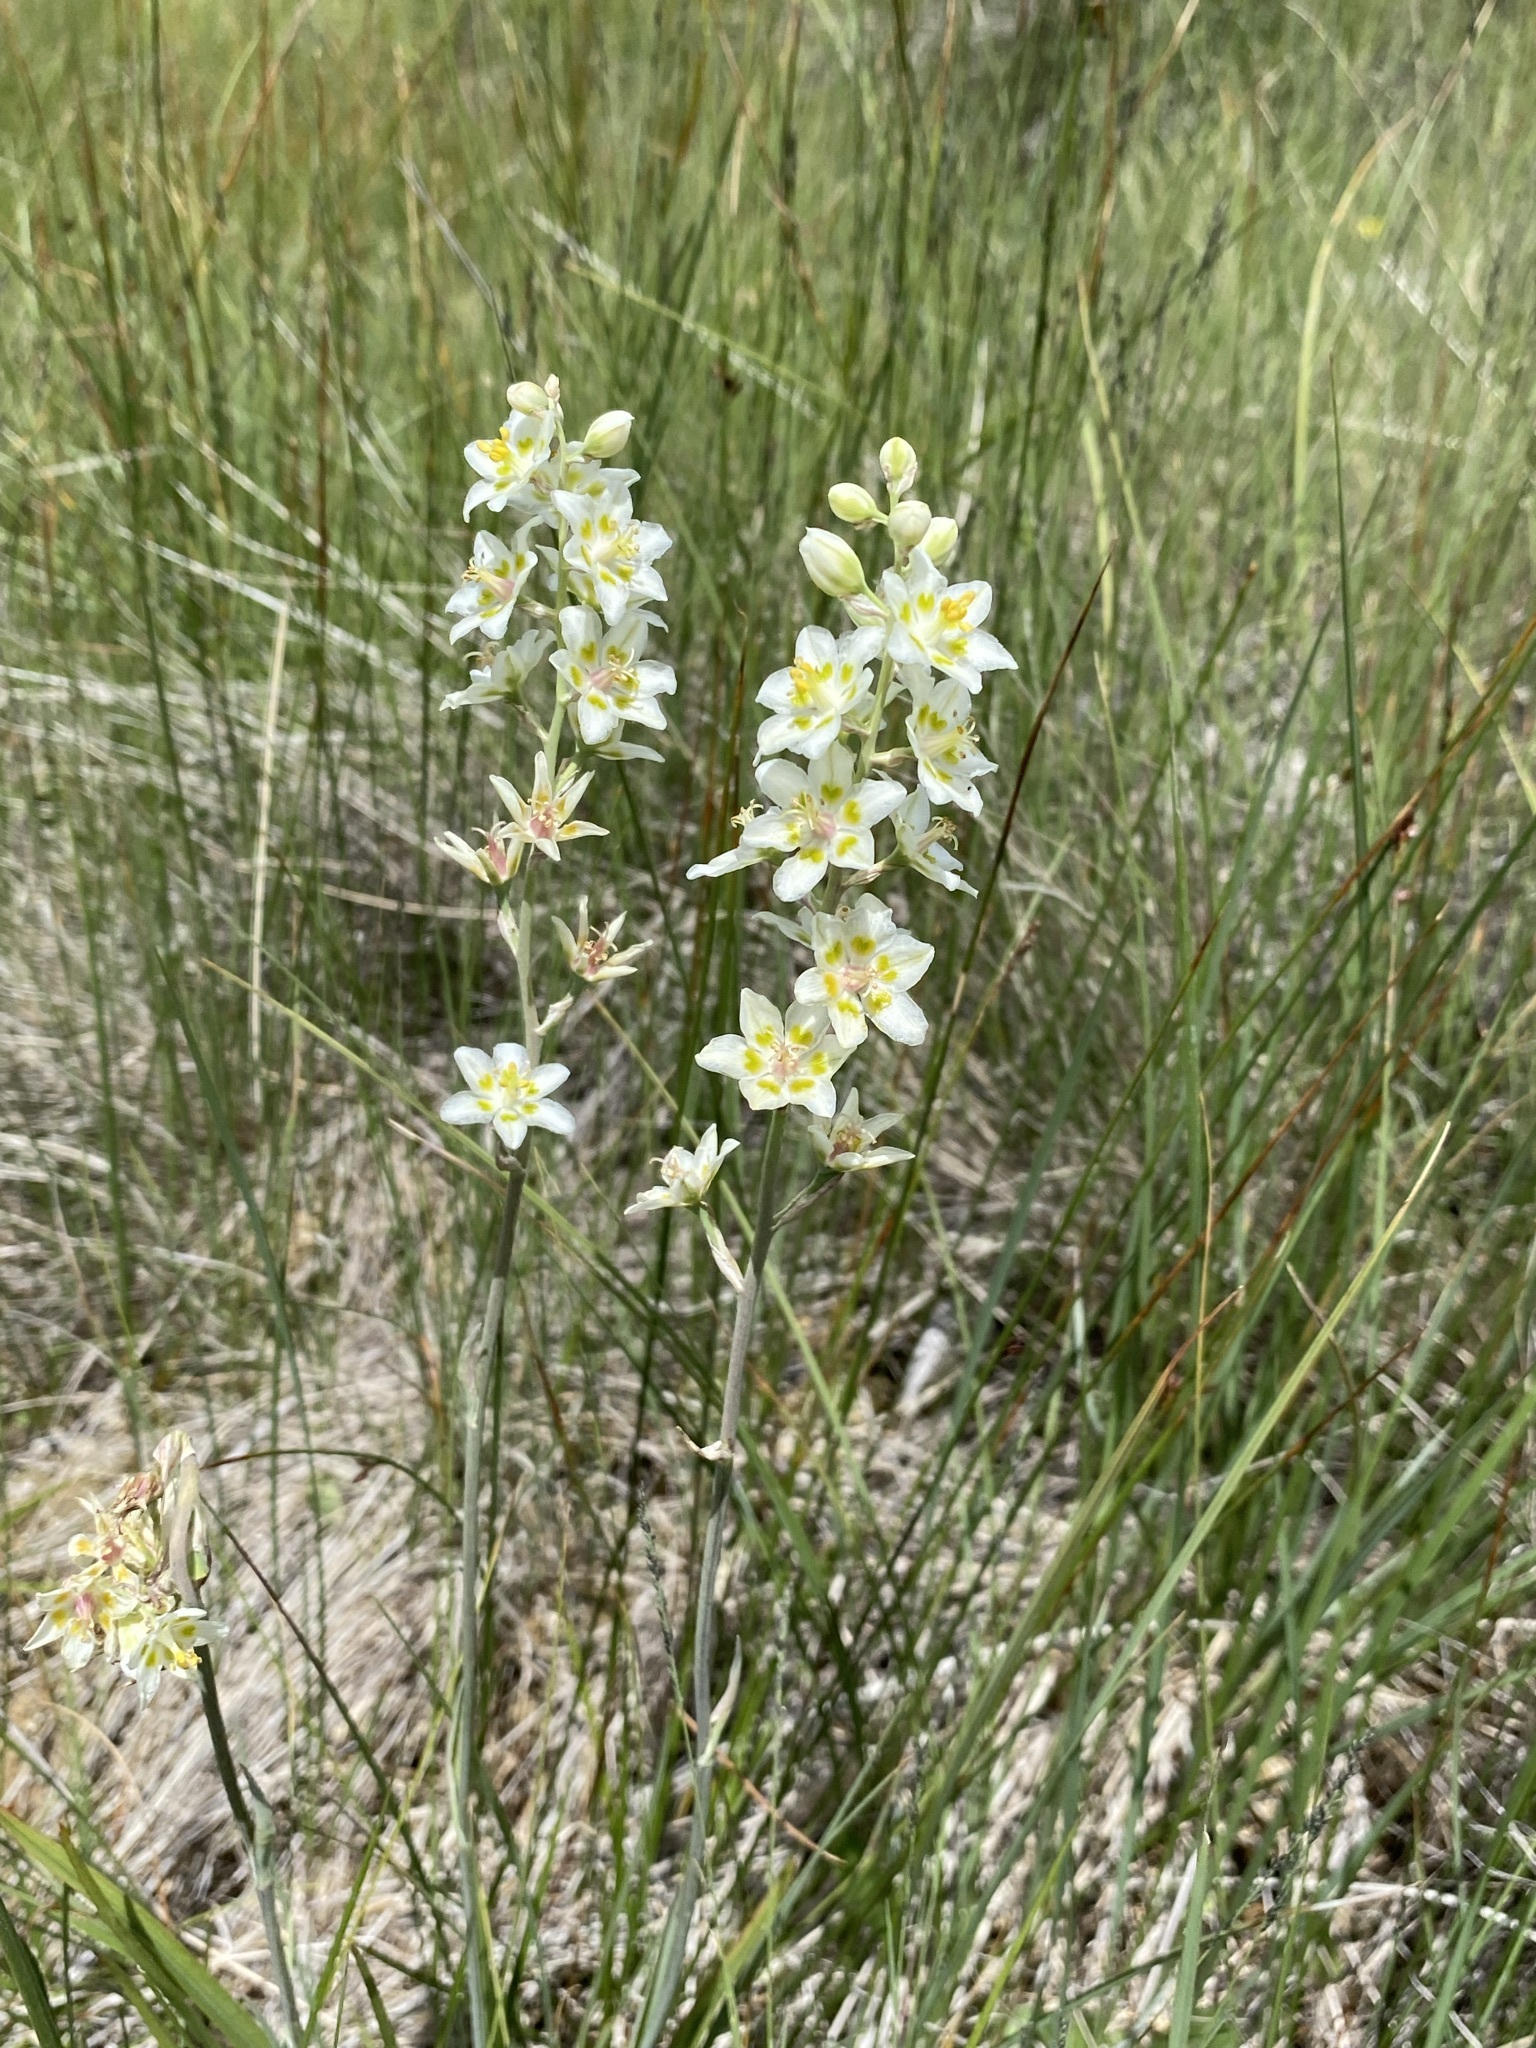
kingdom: Plantae
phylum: Tracheophyta
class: Liliopsida
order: Liliales
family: Melanthiaceae
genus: Anticlea
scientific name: Anticlea elegans
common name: Mountain death camas
